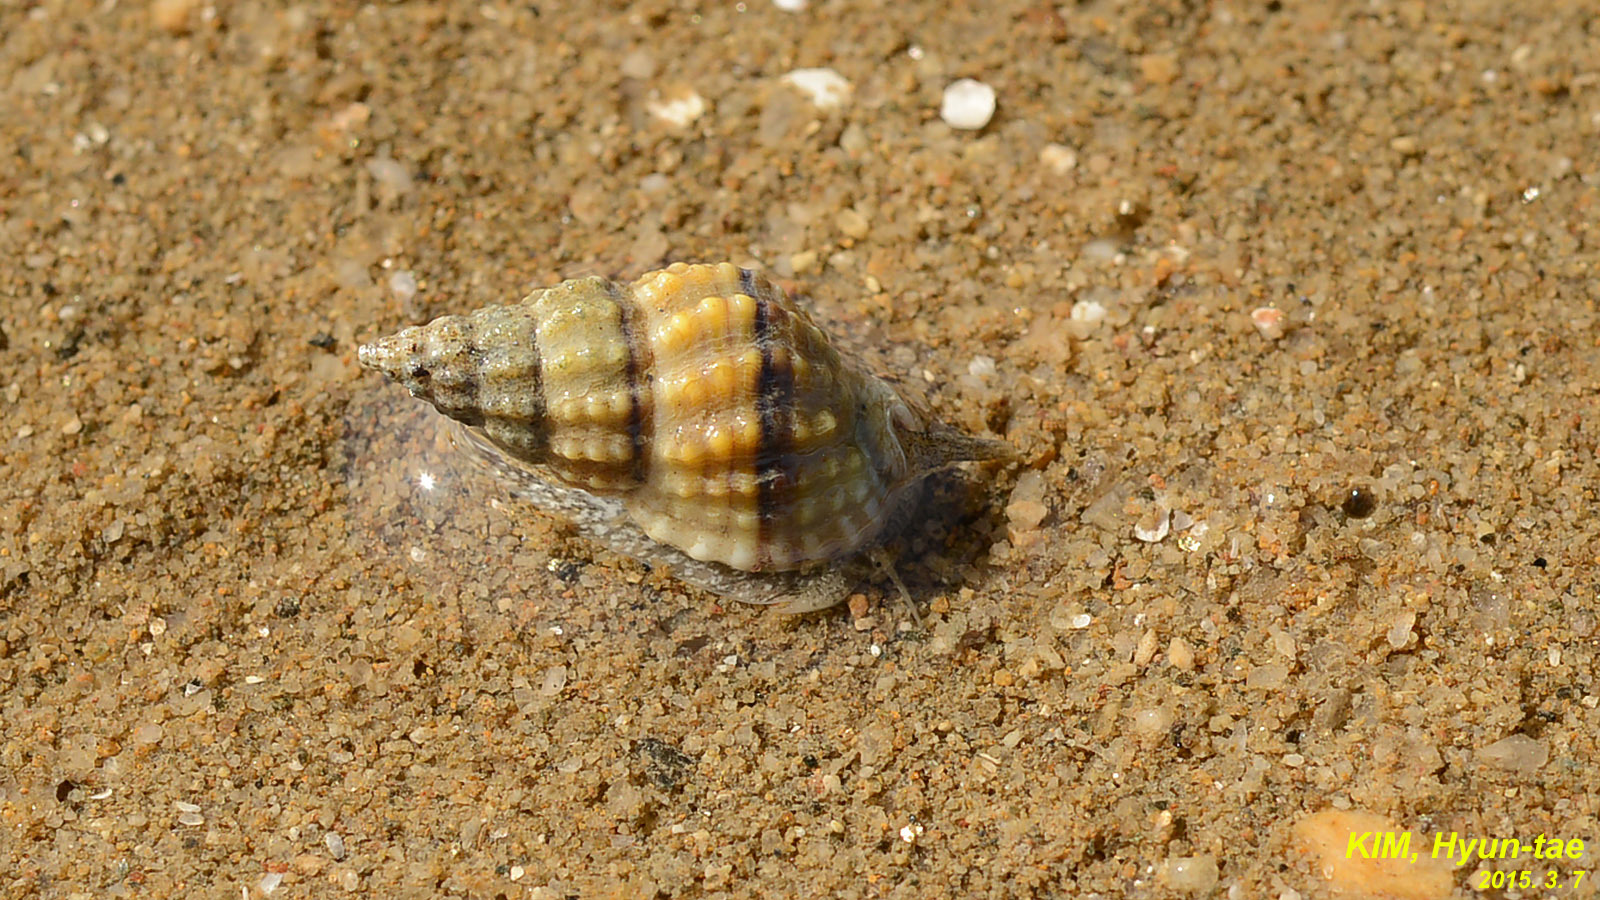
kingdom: Animalia
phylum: Mollusca
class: Gastropoda
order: Neogastropoda
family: Nassariidae
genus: Nassarius
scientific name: Nassarius festivus
